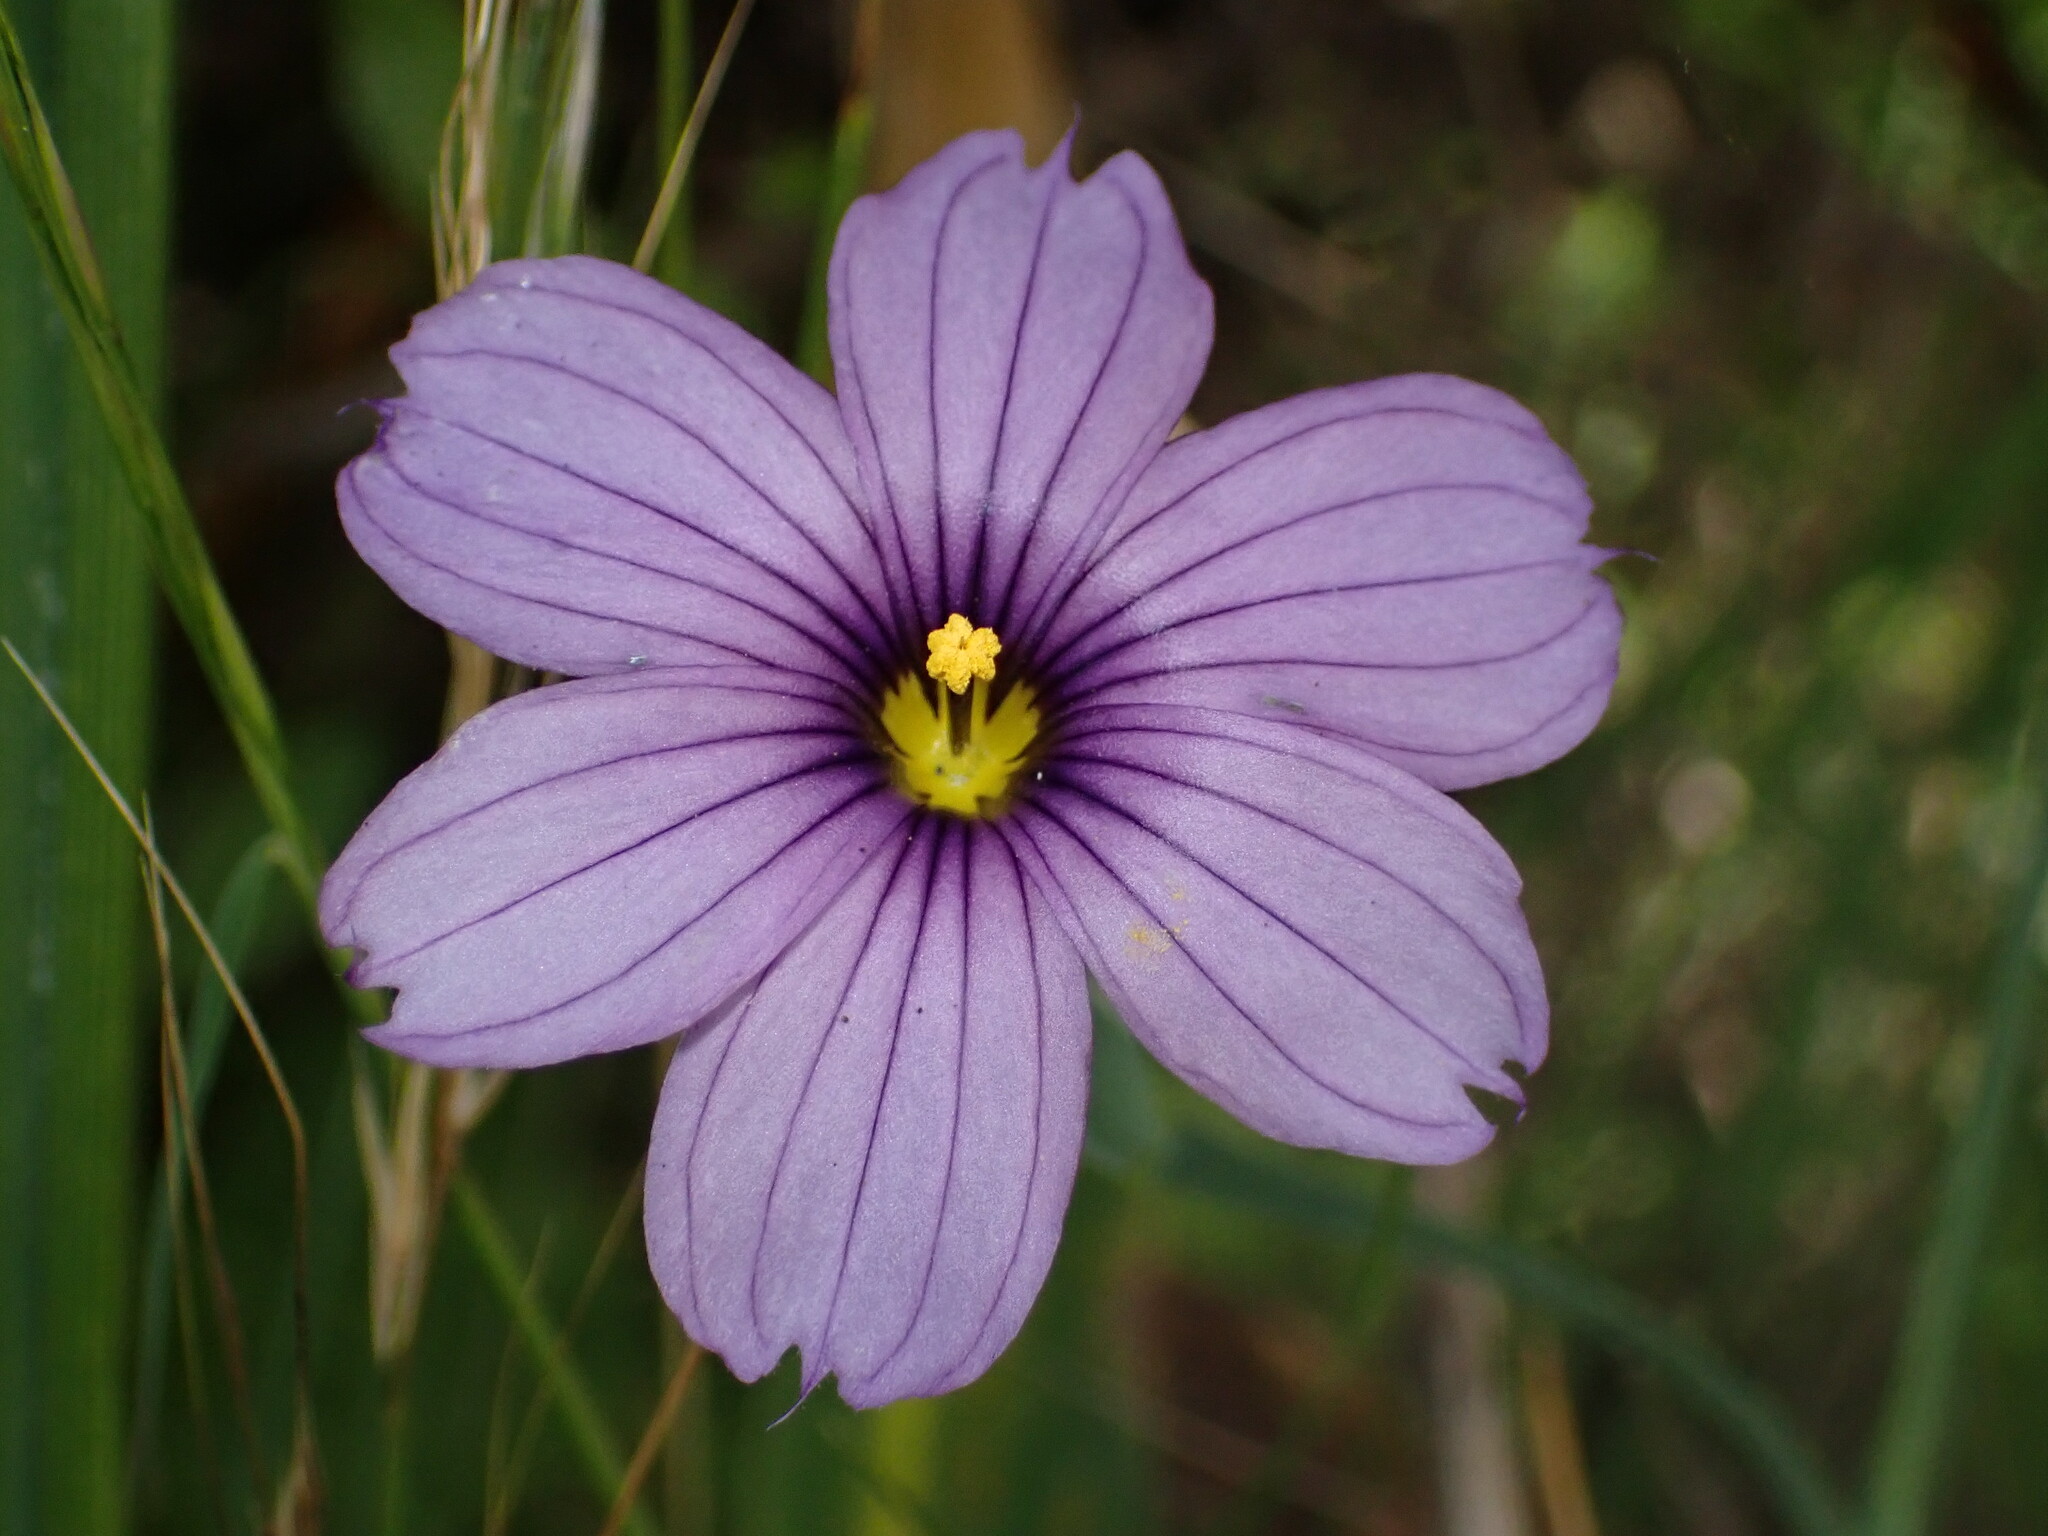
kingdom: Plantae
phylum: Tracheophyta
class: Liliopsida
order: Asparagales
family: Iridaceae
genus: Sisyrinchium
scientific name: Sisyrinchium bellum
